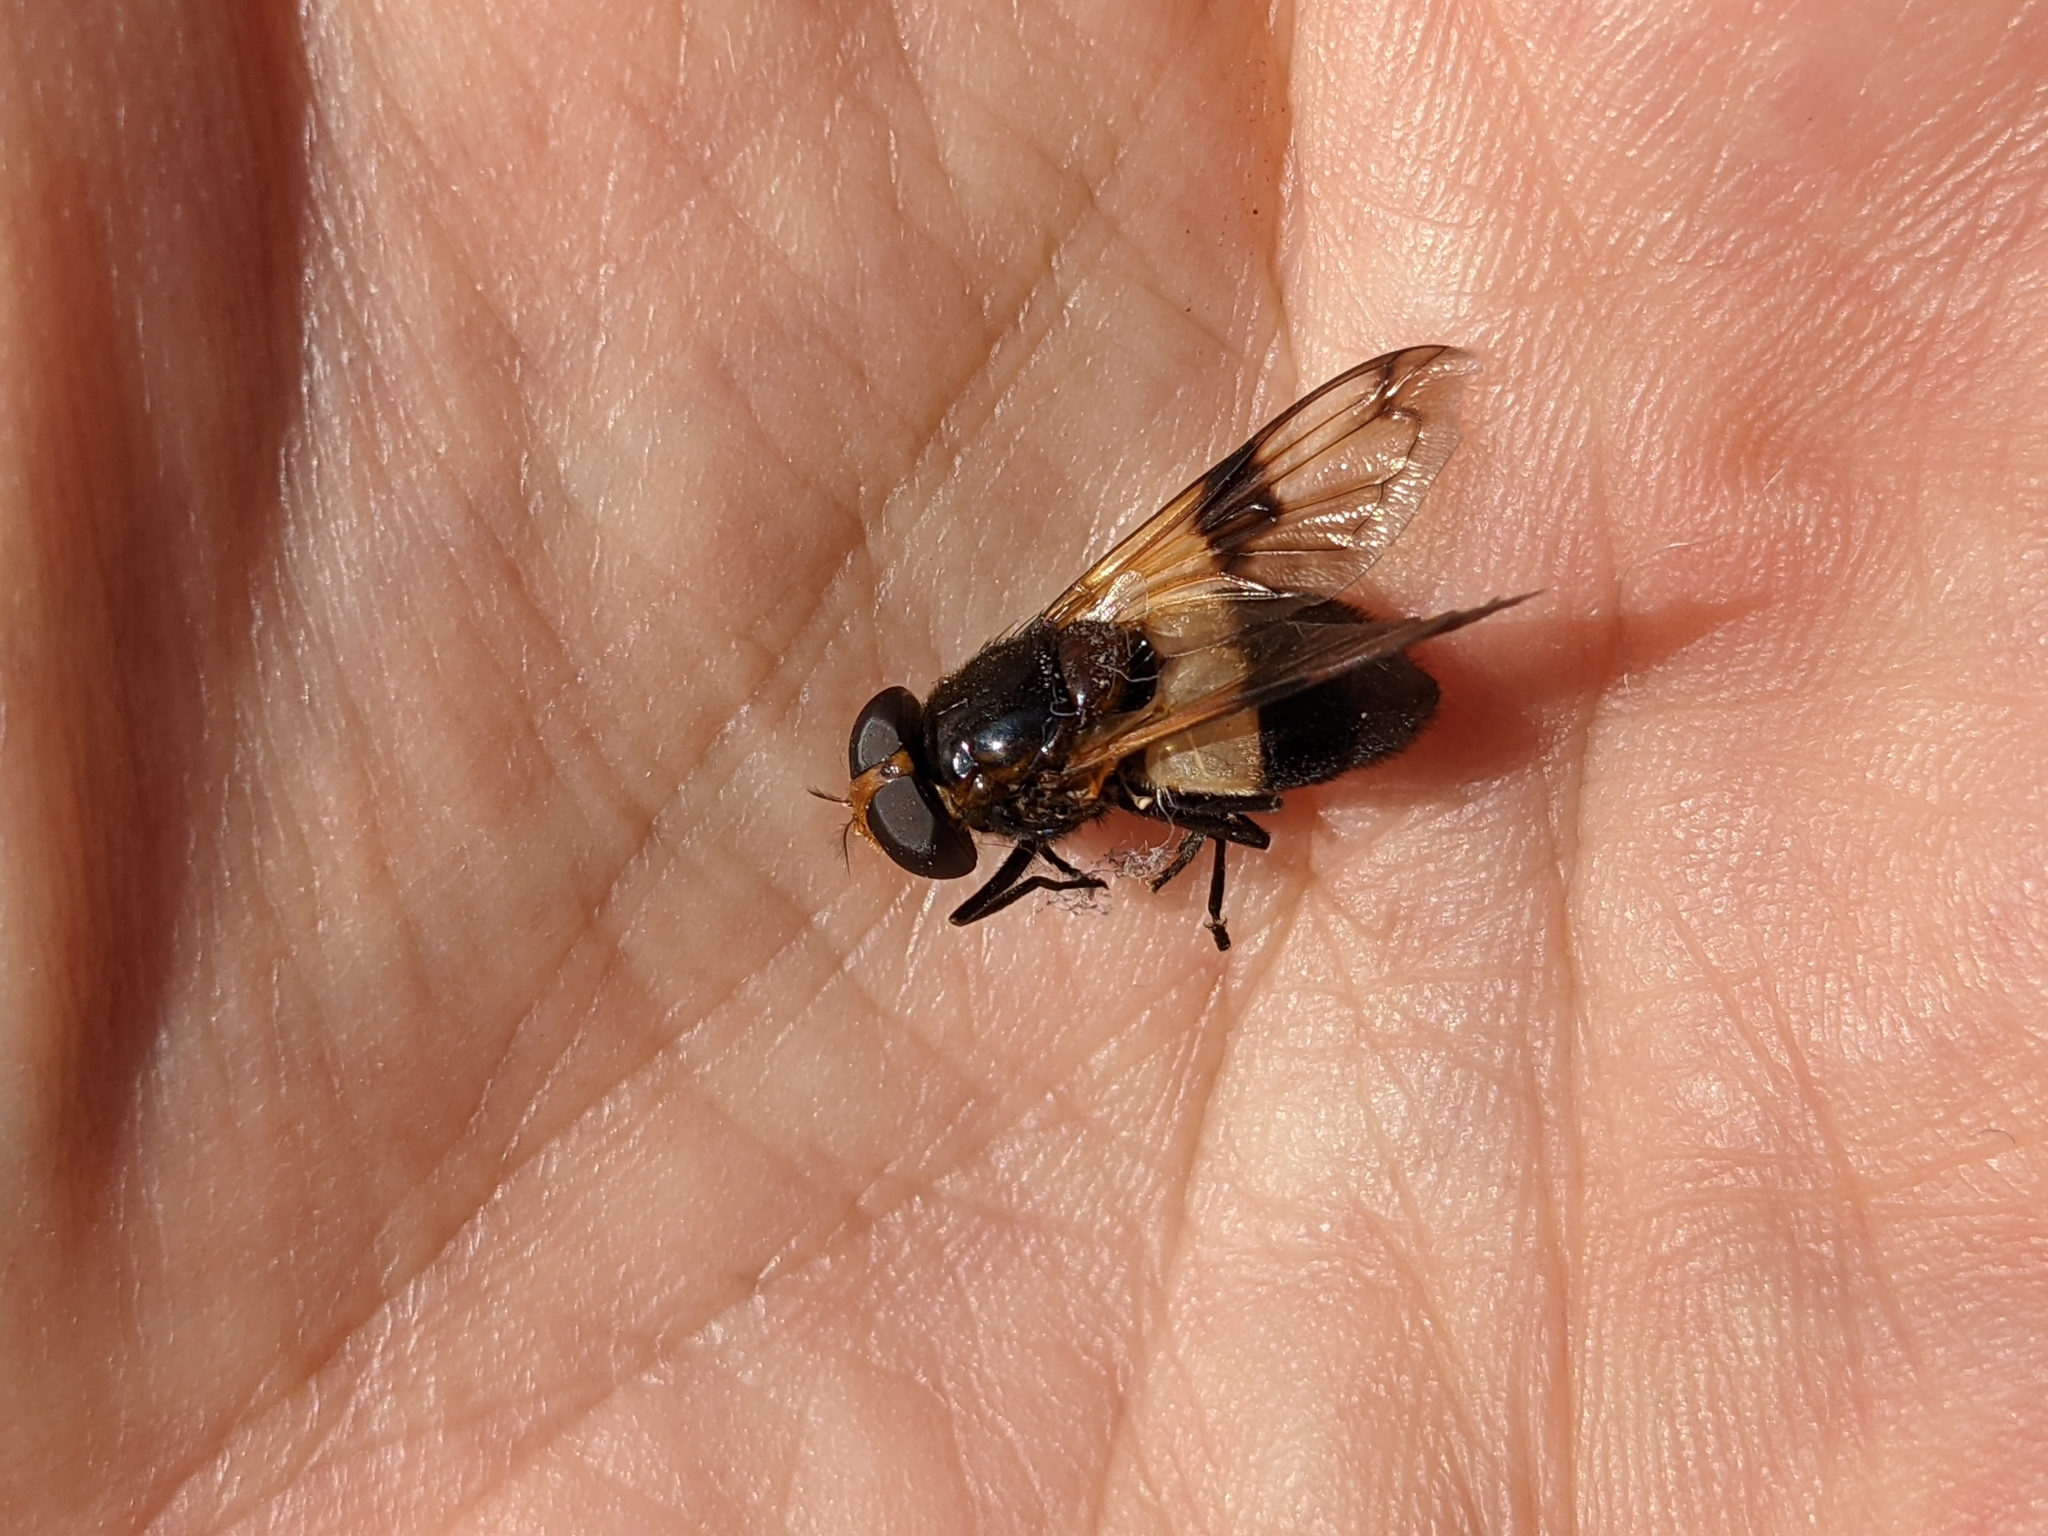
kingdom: Animalia
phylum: Arthropoda
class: Insecta
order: Diptera
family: Syrphidae
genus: Volucella
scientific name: Volucella pellucens
